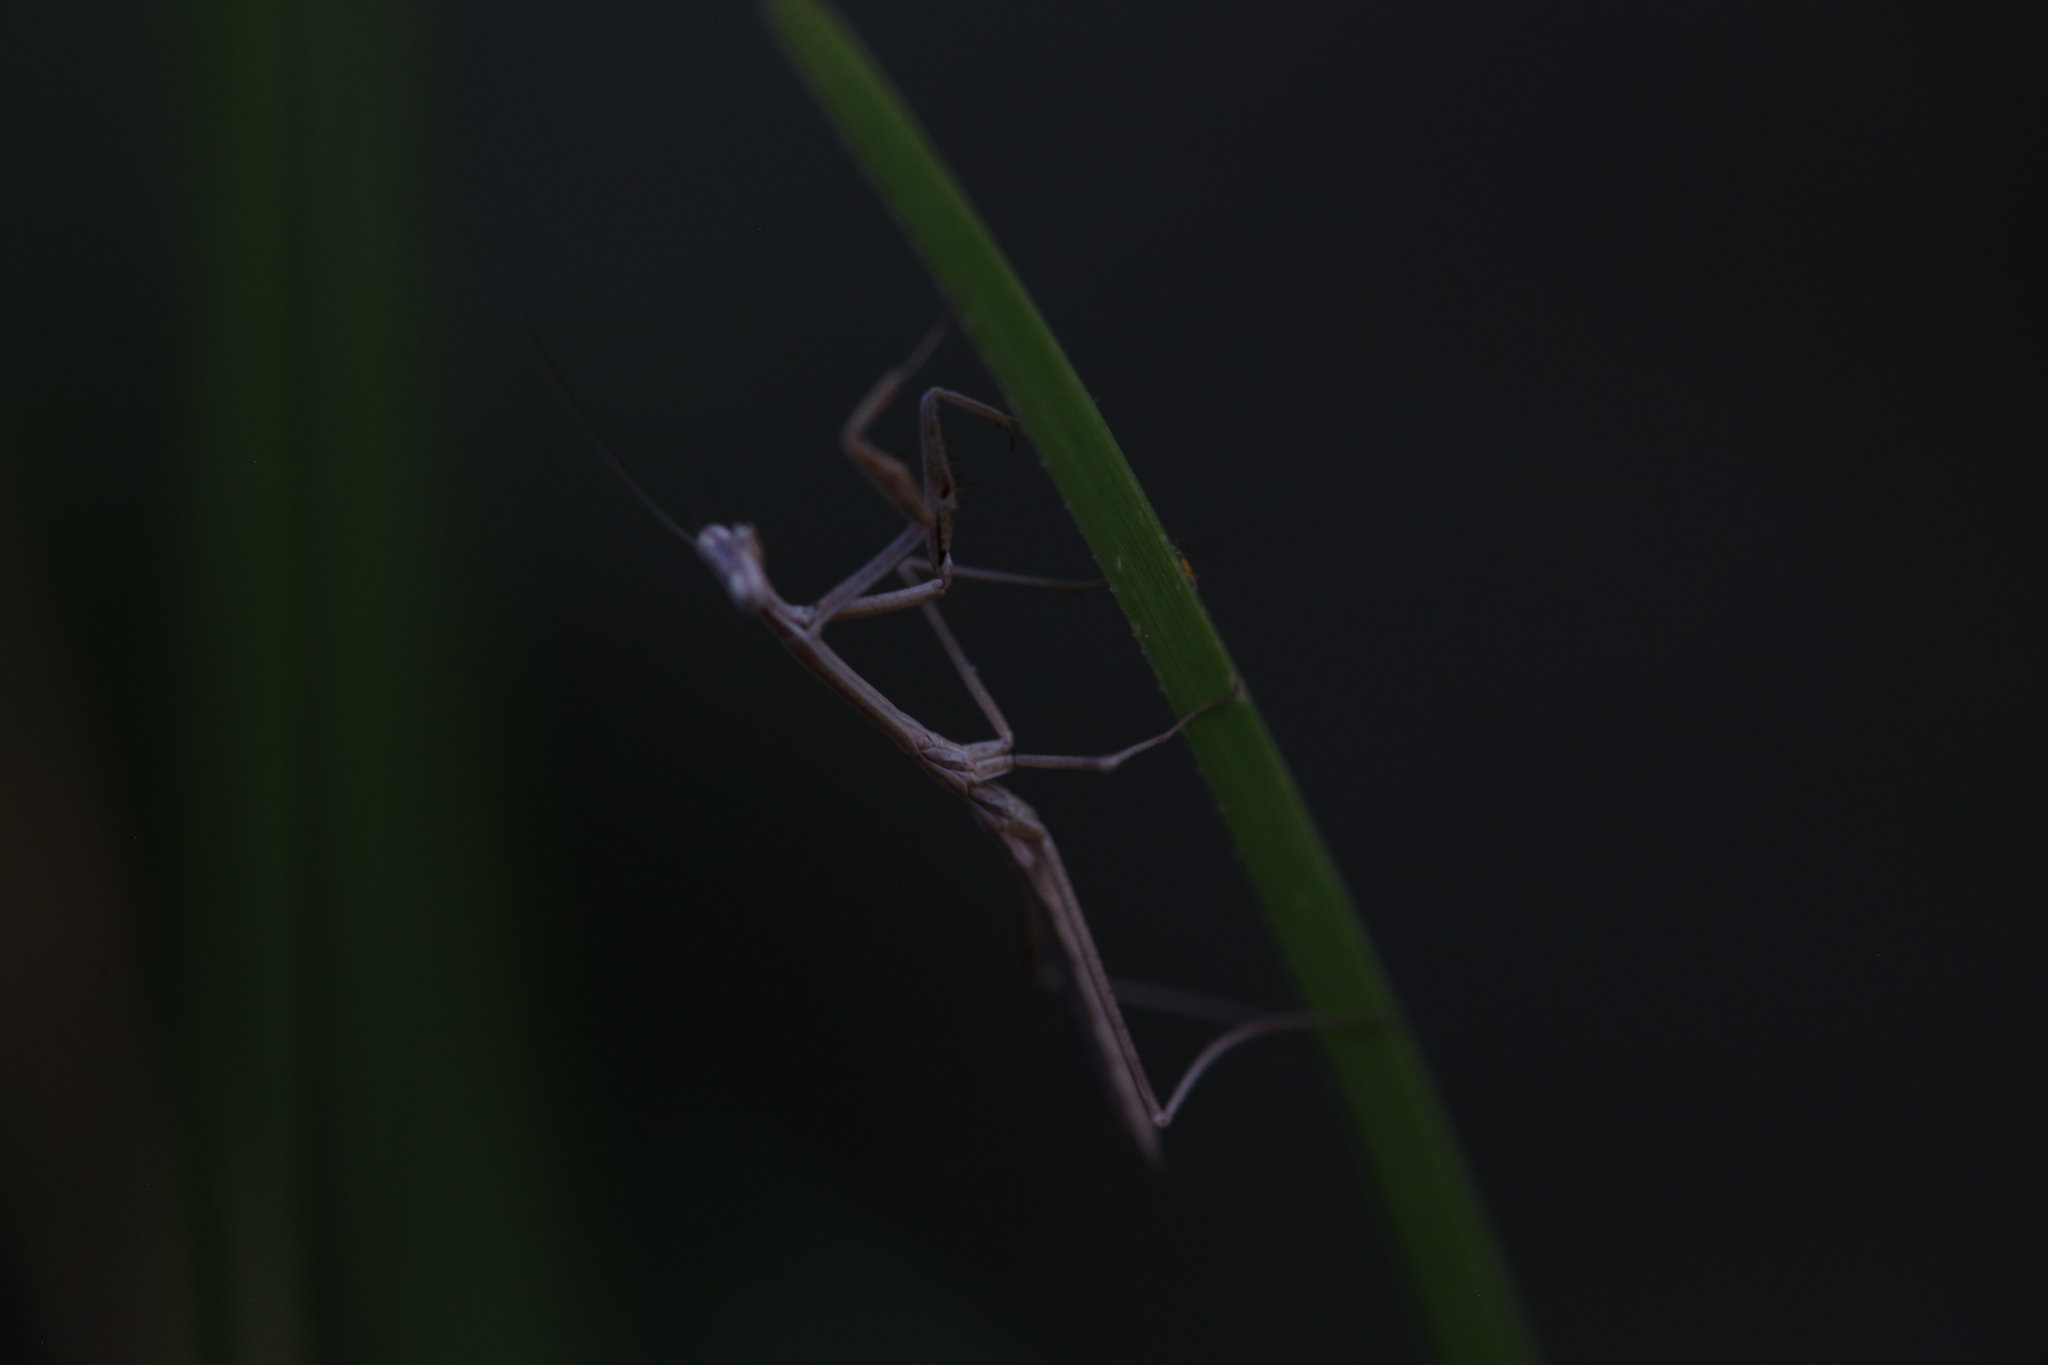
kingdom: Animalia
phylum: Arthropoda
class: Insecta
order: Mantodea
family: Mantidae
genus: Archimantis
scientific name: Archimantis latistyla
